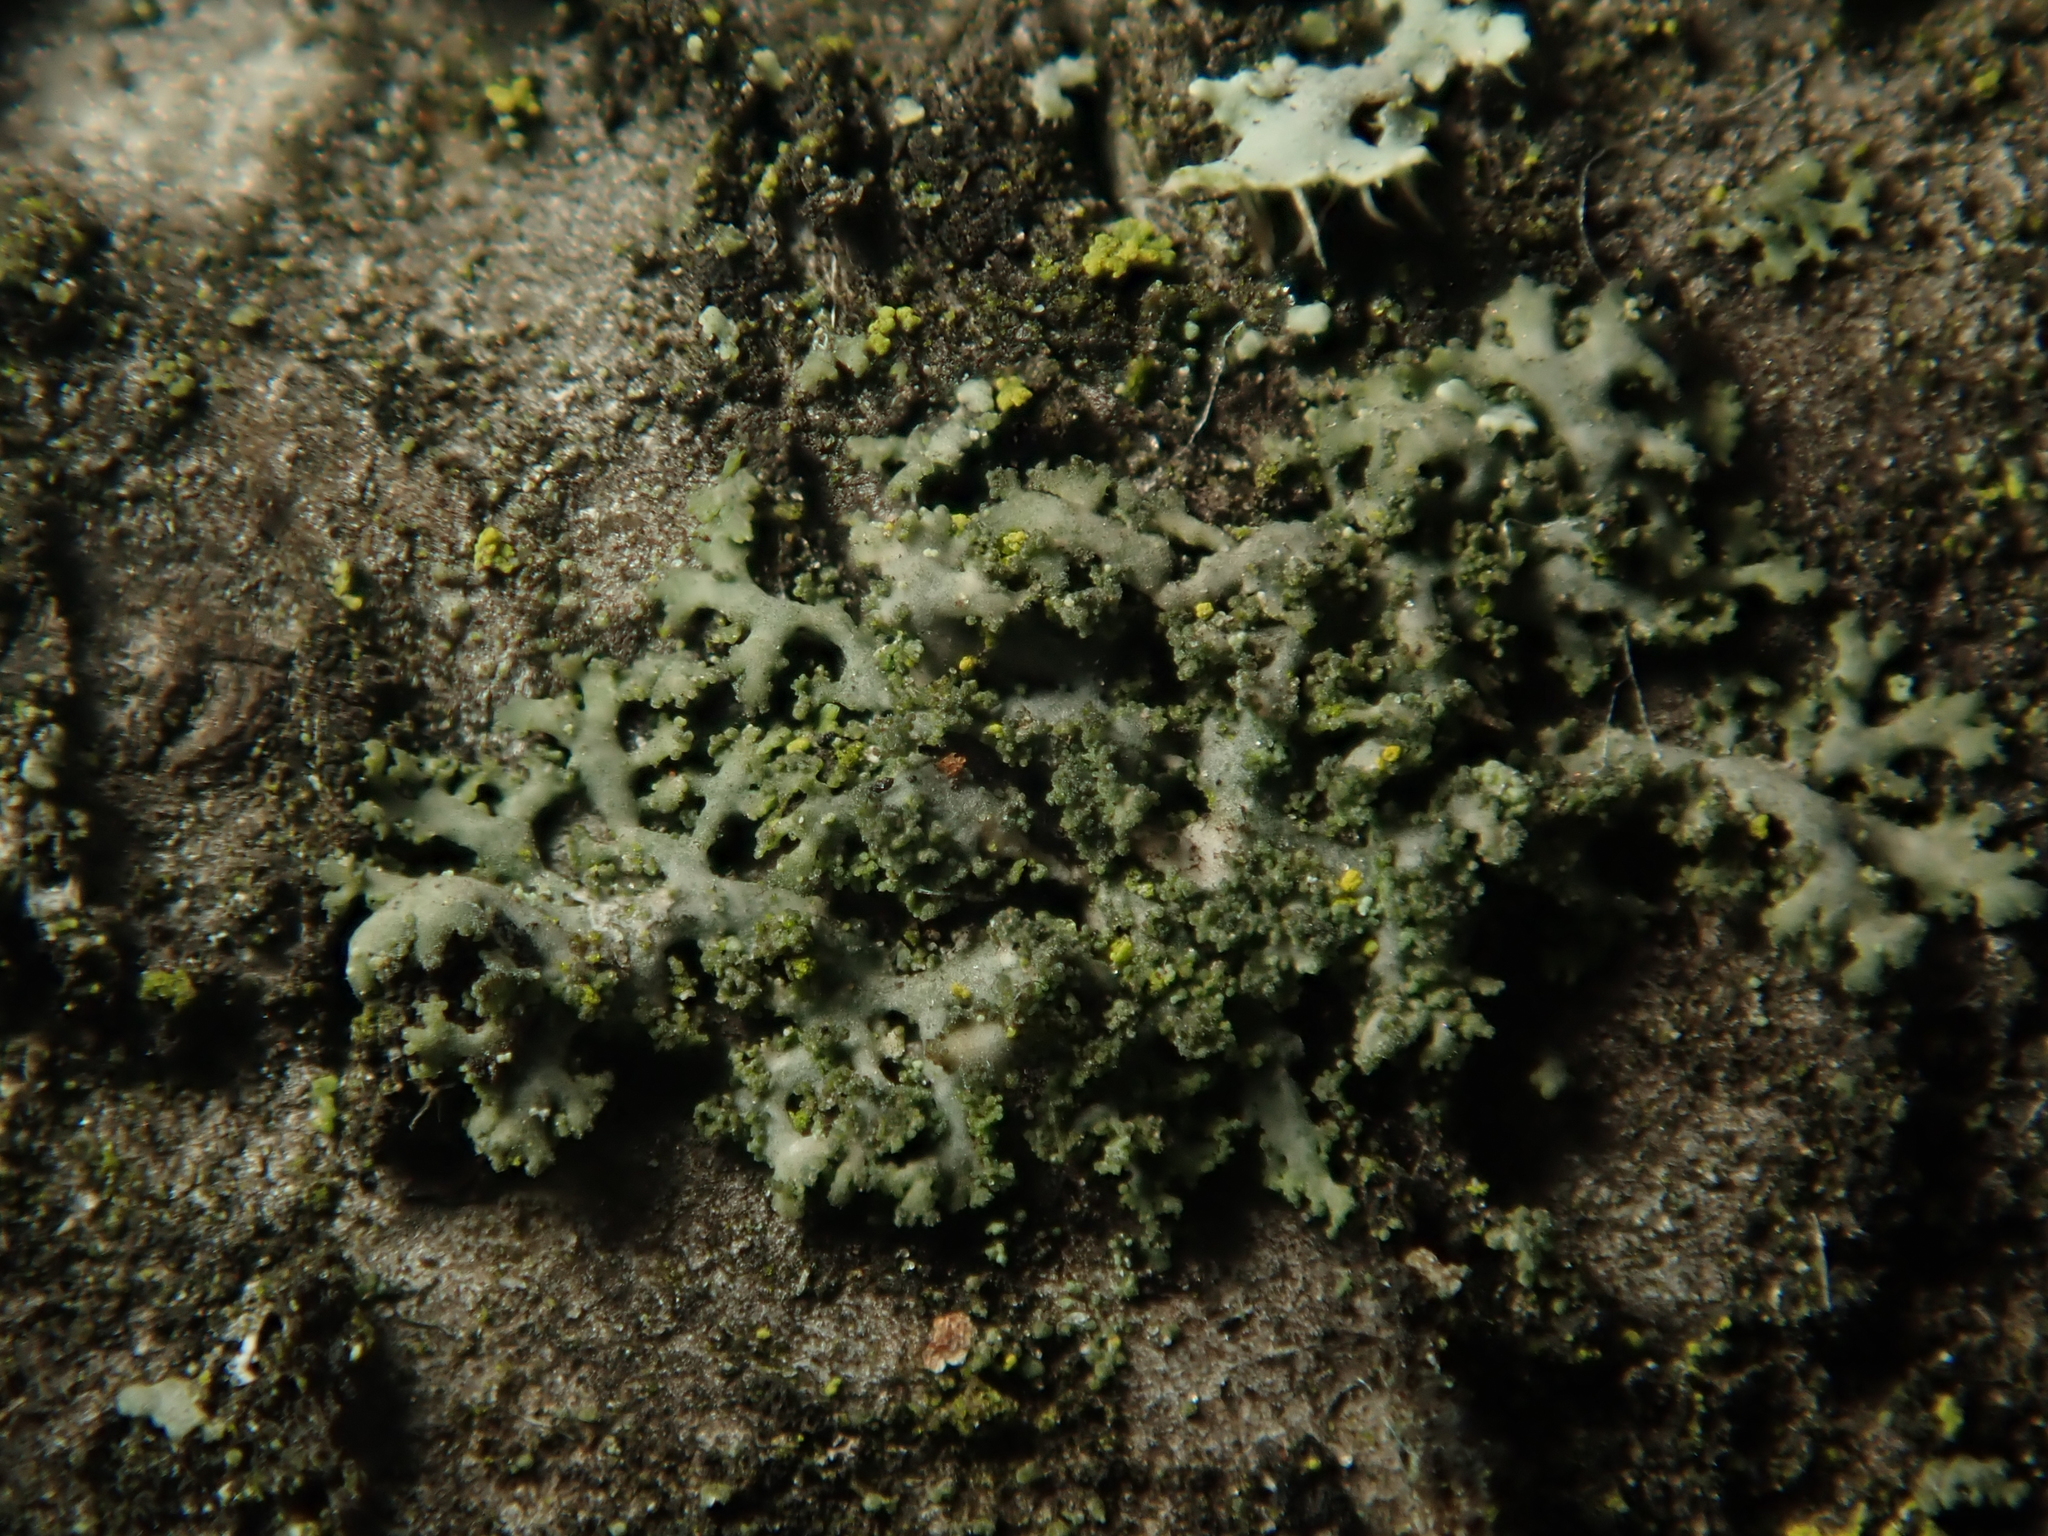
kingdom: Fungi
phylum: Ascomycota
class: Lecanoromycetes
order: Caliciales
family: Physciaceae
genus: Physciella
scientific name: Physciella nigricans
